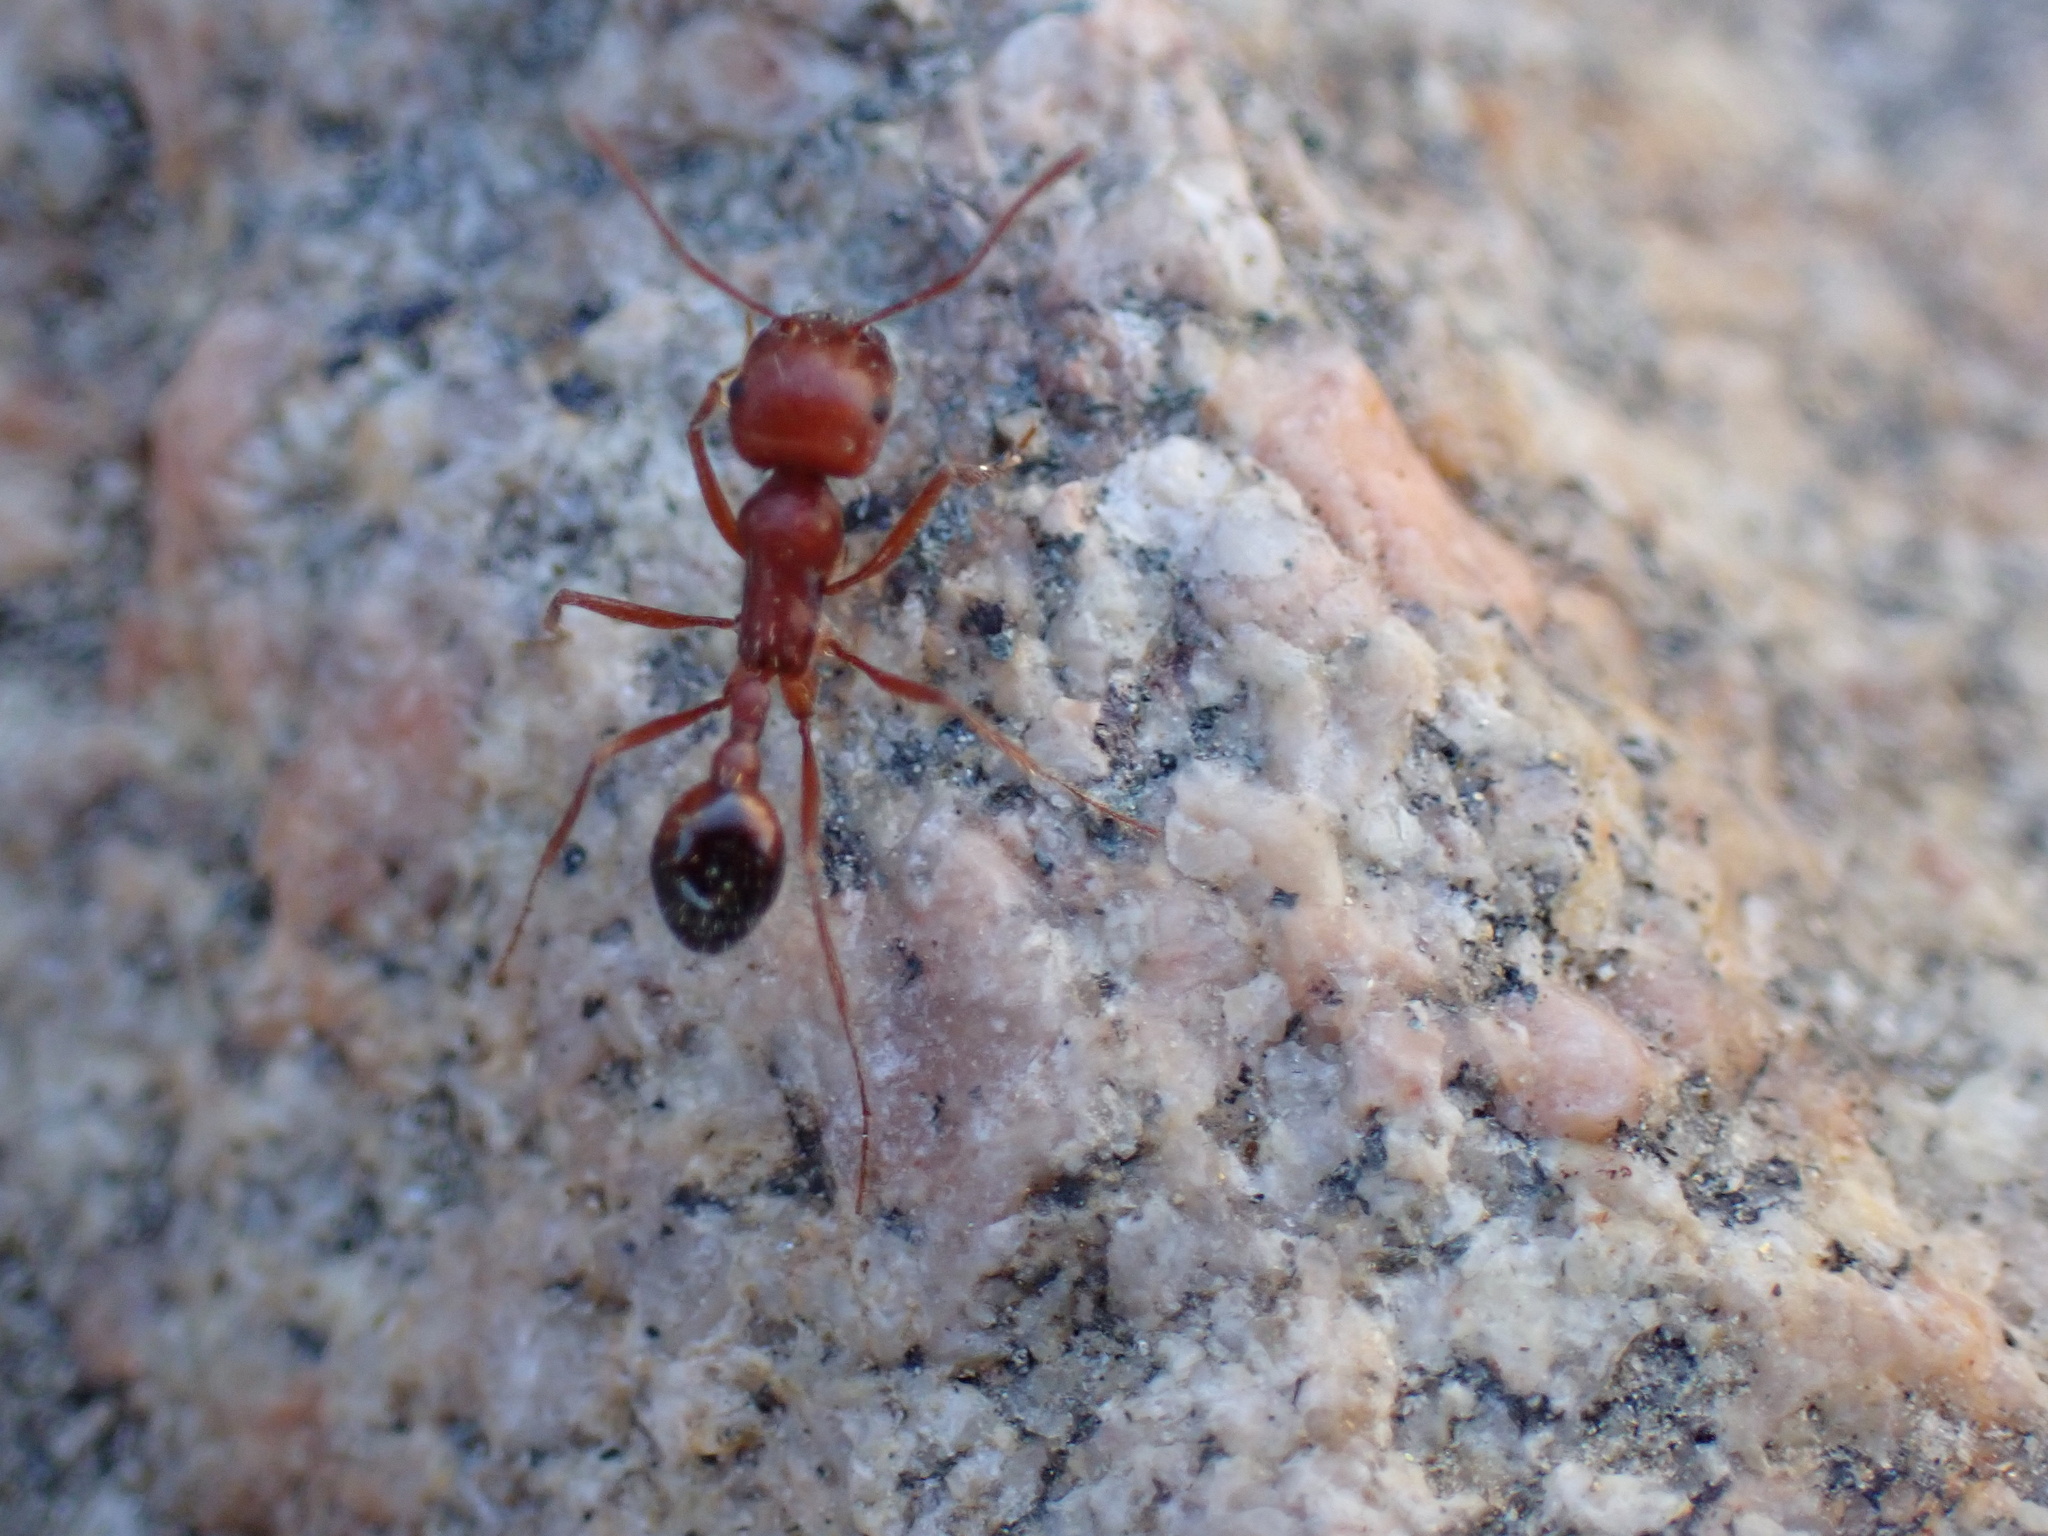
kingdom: Animalia
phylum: Arthropoda
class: Insecta
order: Hymenoptera
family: Formicidae
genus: Pogonomyrmex
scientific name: Pogonomyrmex californicus
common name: California harvester ant
